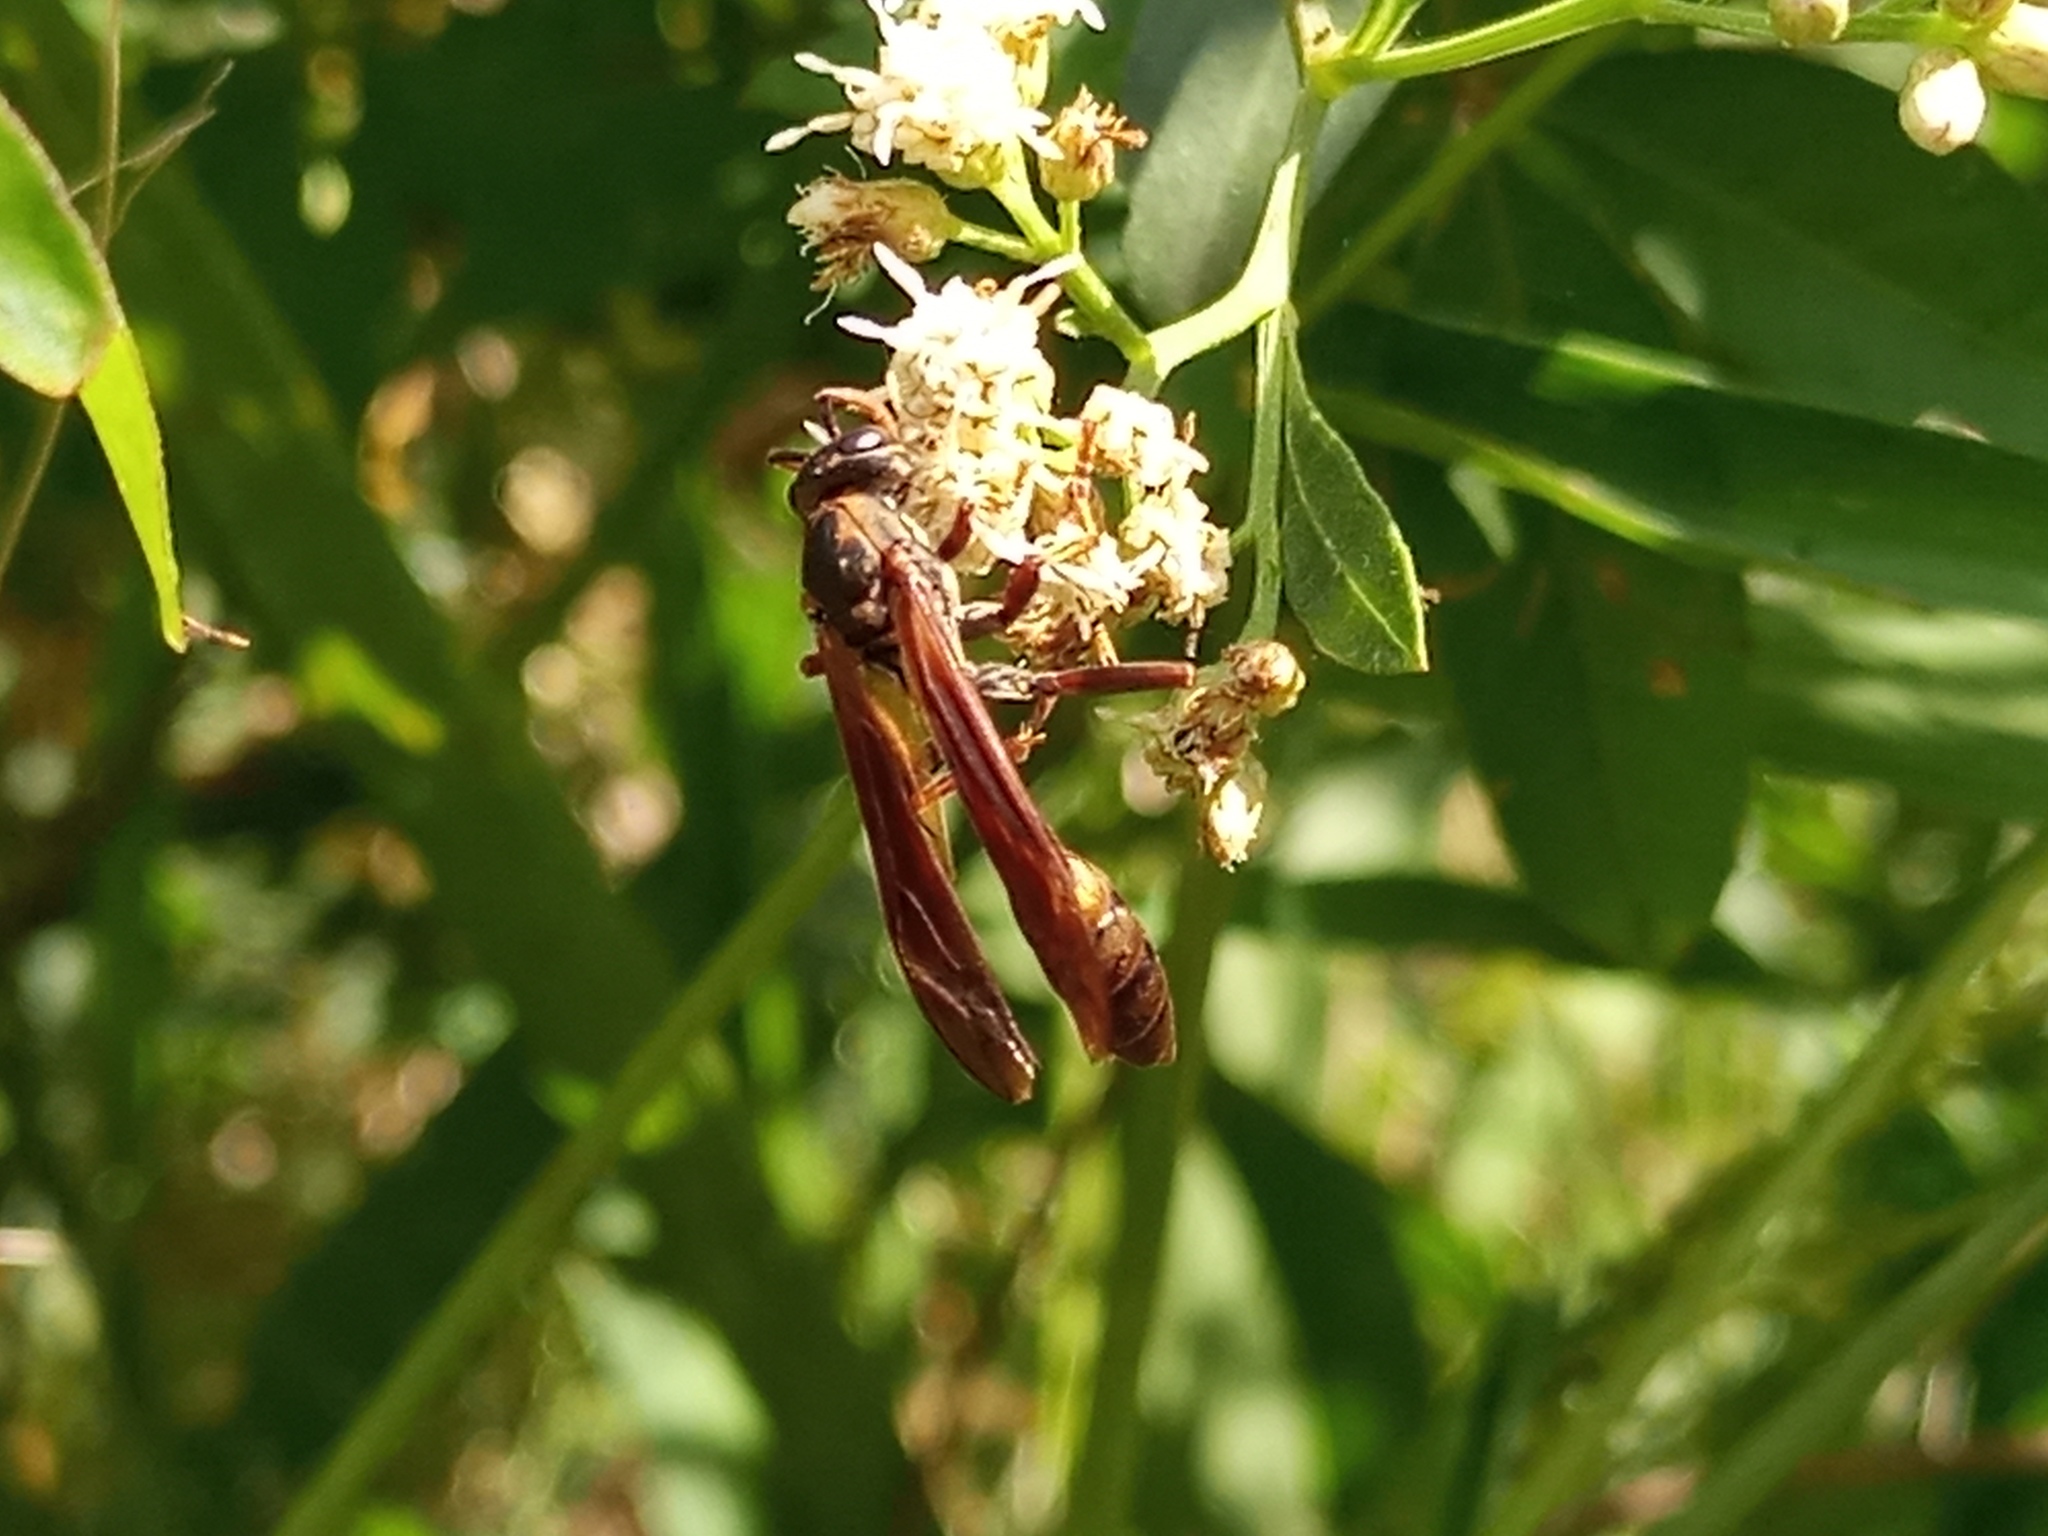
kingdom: Animalia
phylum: Arthropoda
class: Insecta
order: Hymenoptera
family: Vespidae
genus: Mischocyttarus
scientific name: Mischocyttarus drewseni
